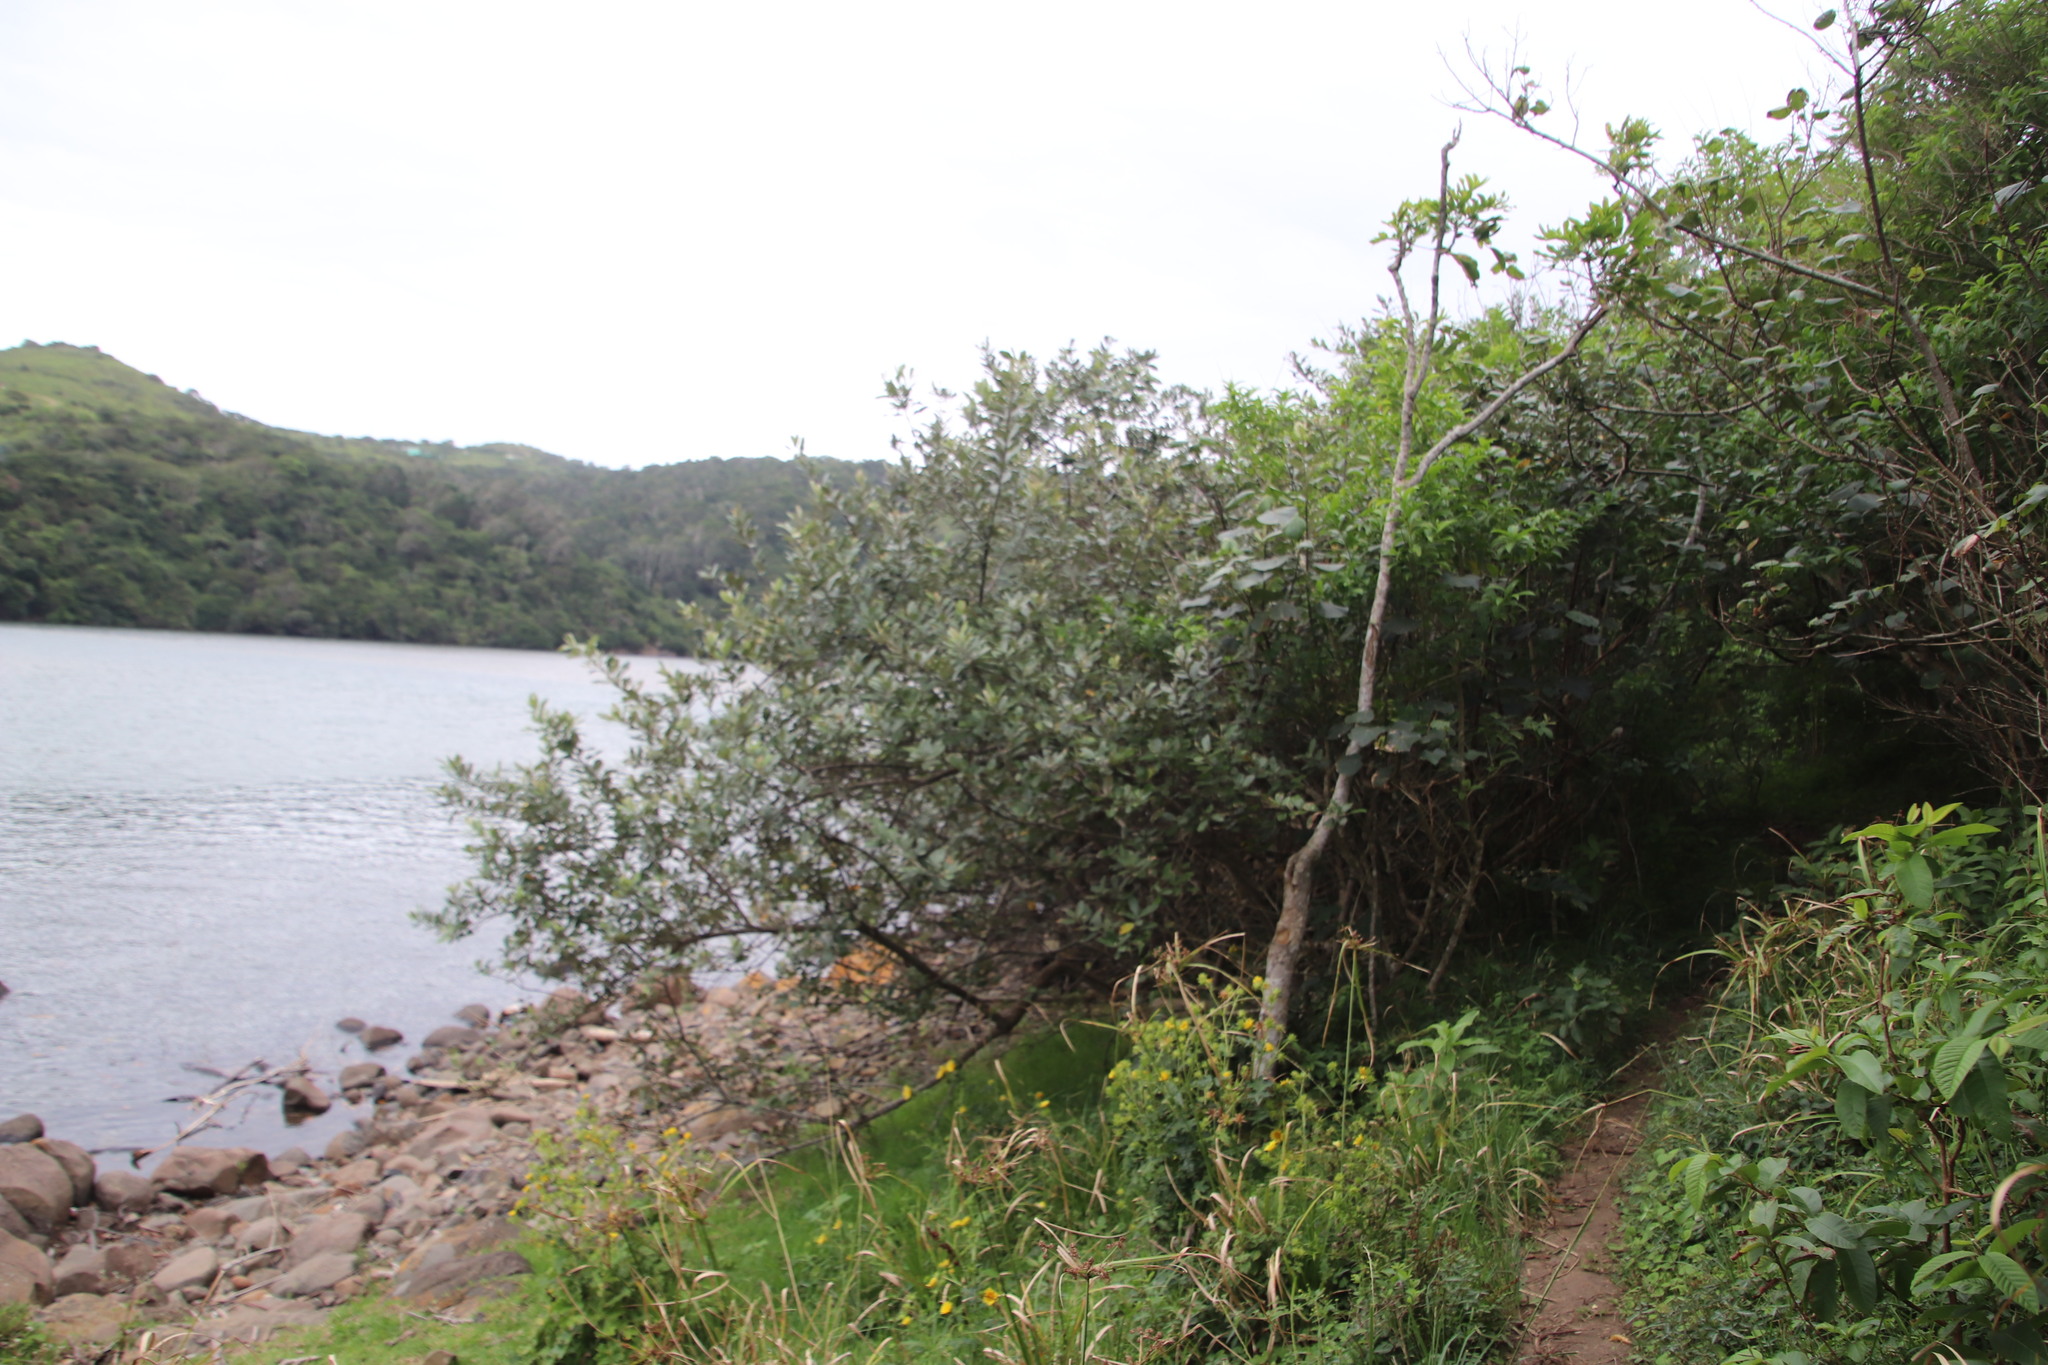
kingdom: Plantae
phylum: Tracheophyta
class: Magnoliopsida
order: Asterales
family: Asteraceae
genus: Brachylaena
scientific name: Brachylaena discolor
